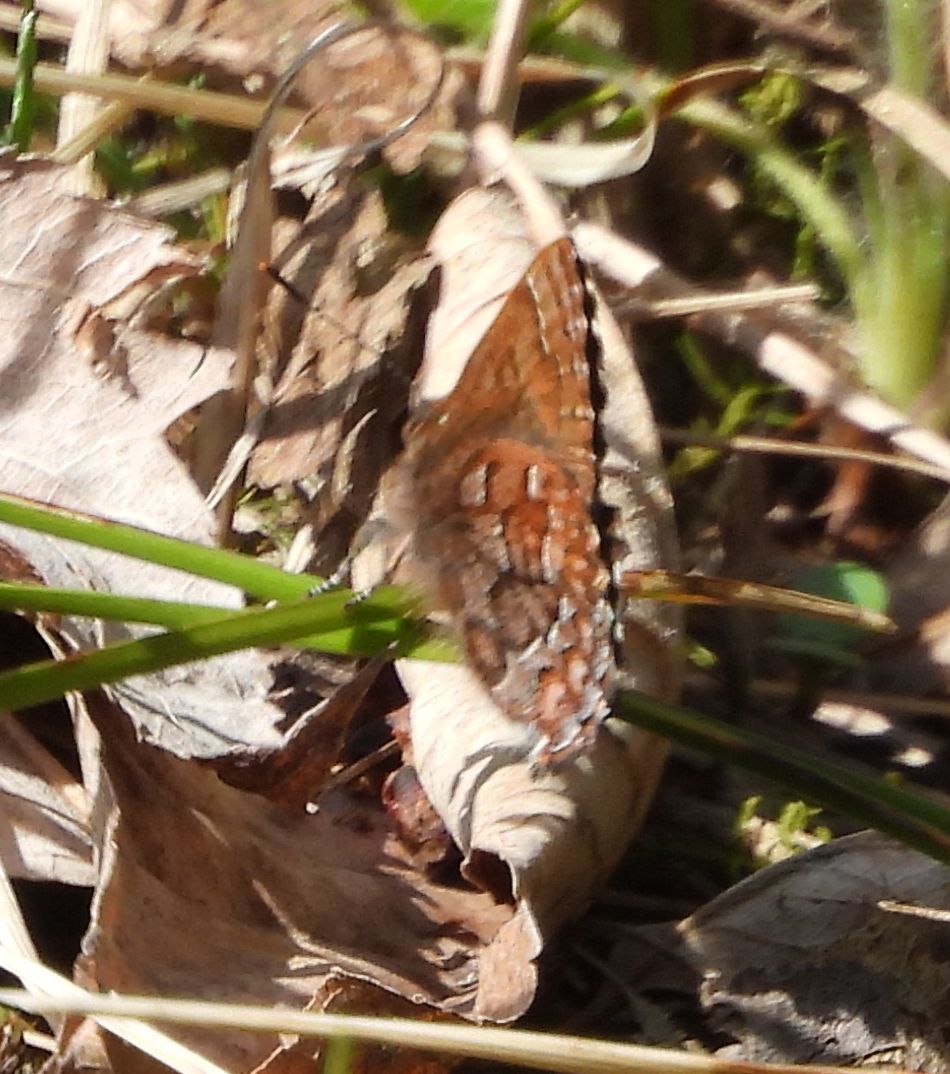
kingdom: Animalia
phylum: Arthropoda
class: Insecta
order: Lepidoptera
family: Lycaenidae
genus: Incisalia
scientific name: Incisalia niphon
